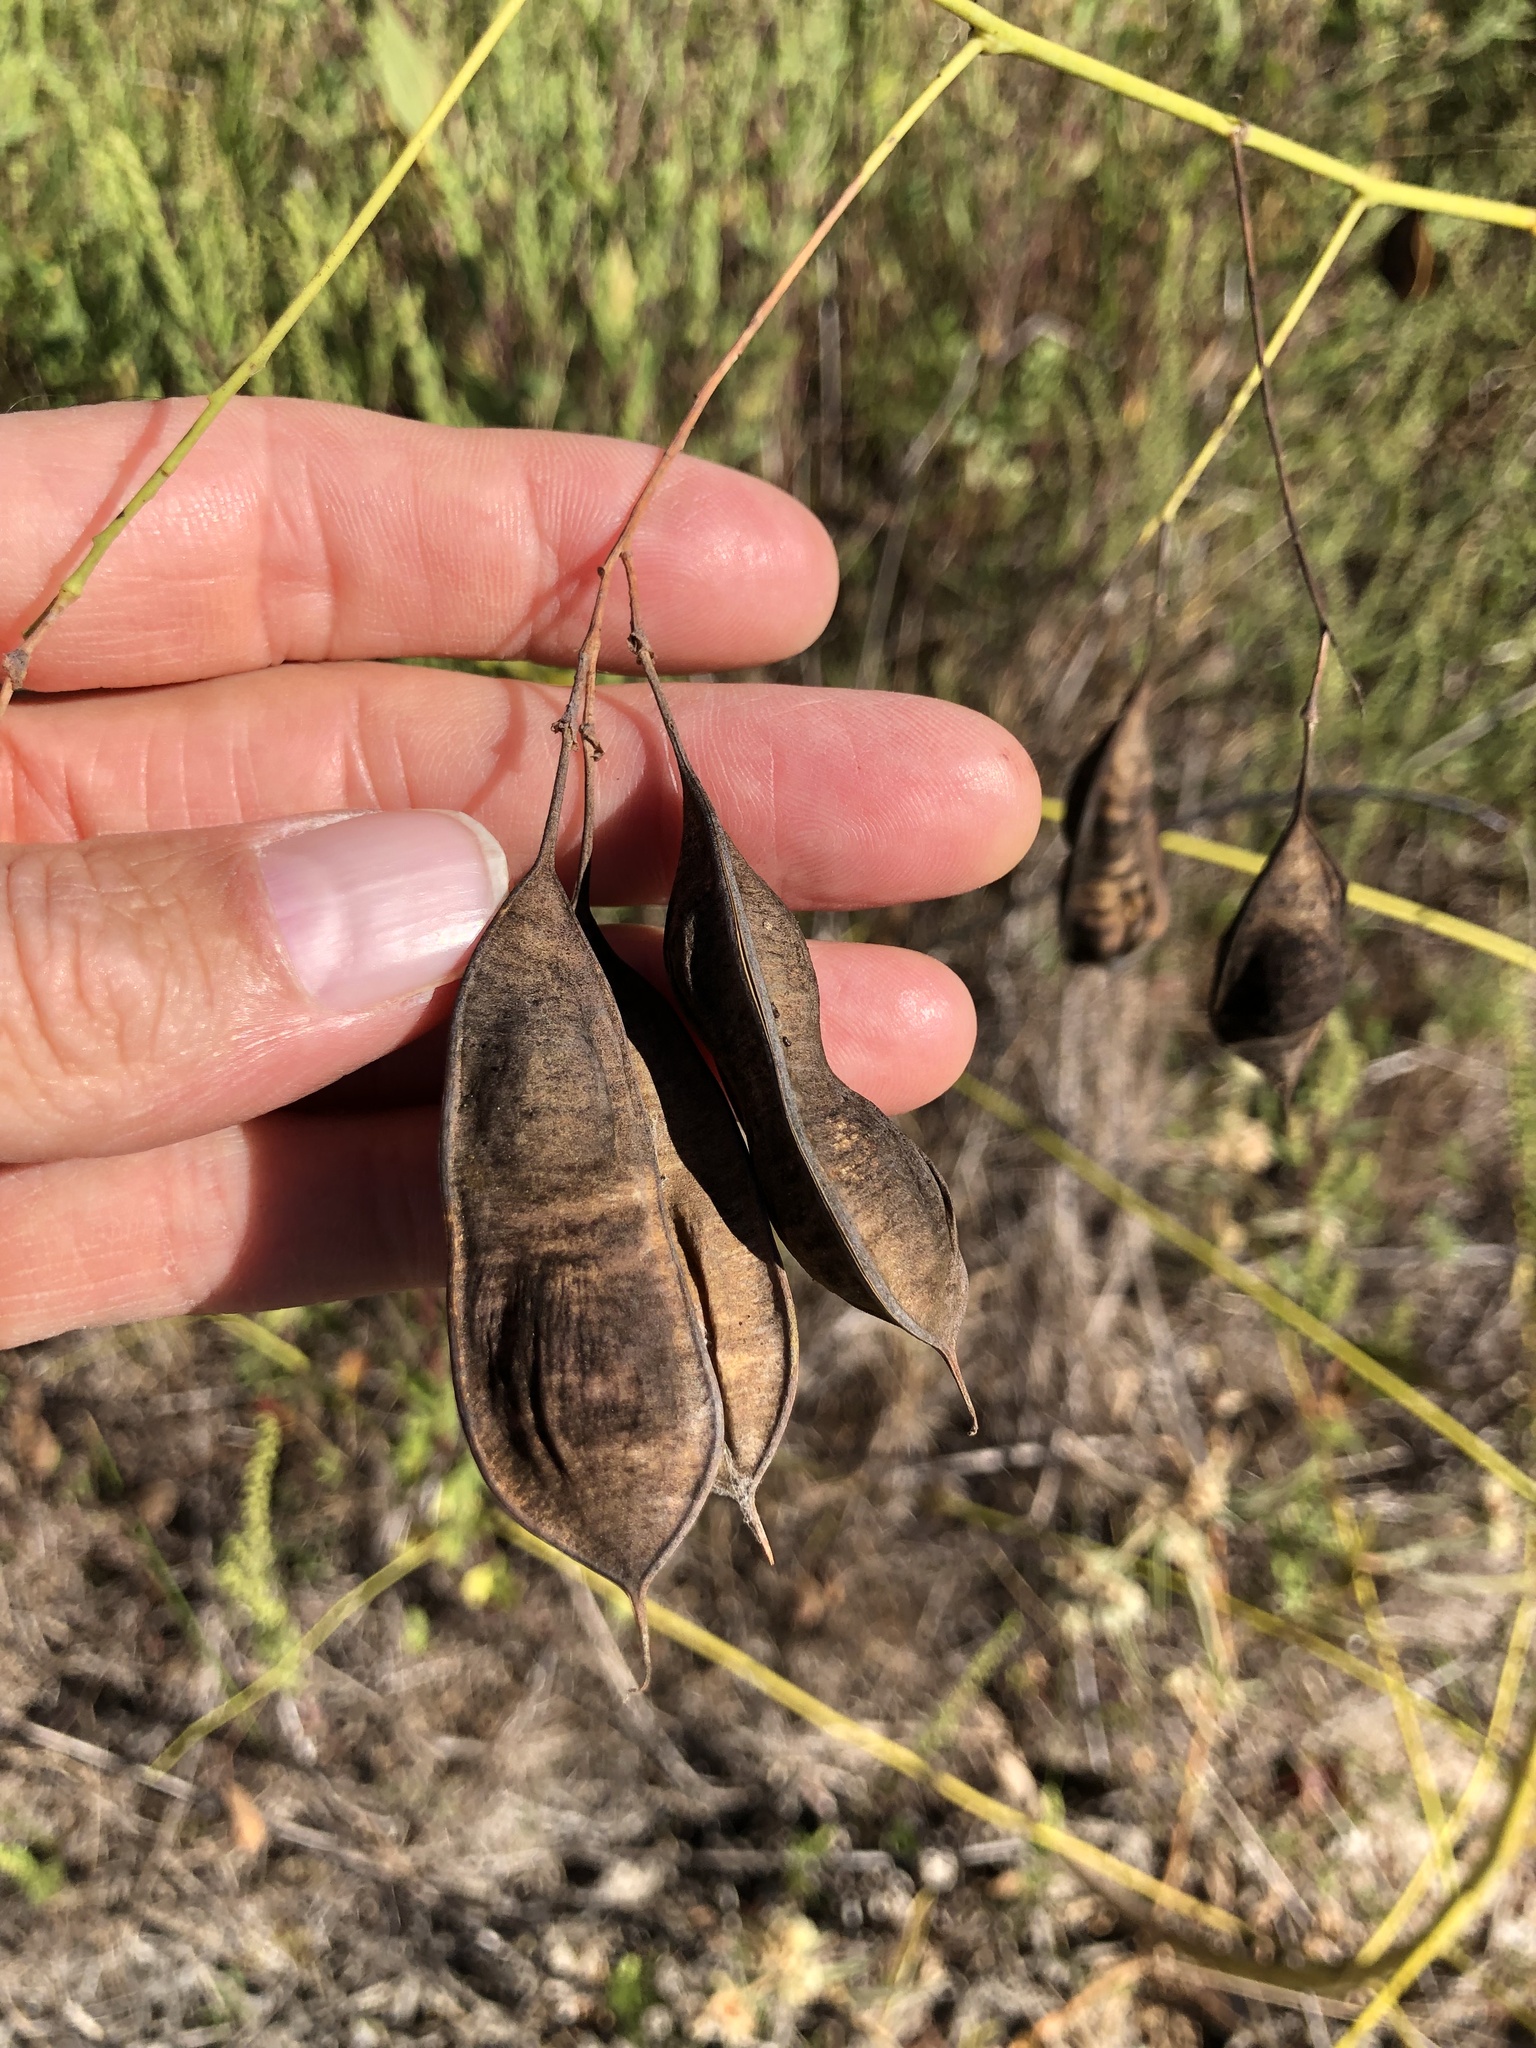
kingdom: Plantae
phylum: Tracheophyta
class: Magnoliopsida
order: Fabales
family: Fabaceae
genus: Sesbania
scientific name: Sesbania vesicaria
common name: Bagpod
